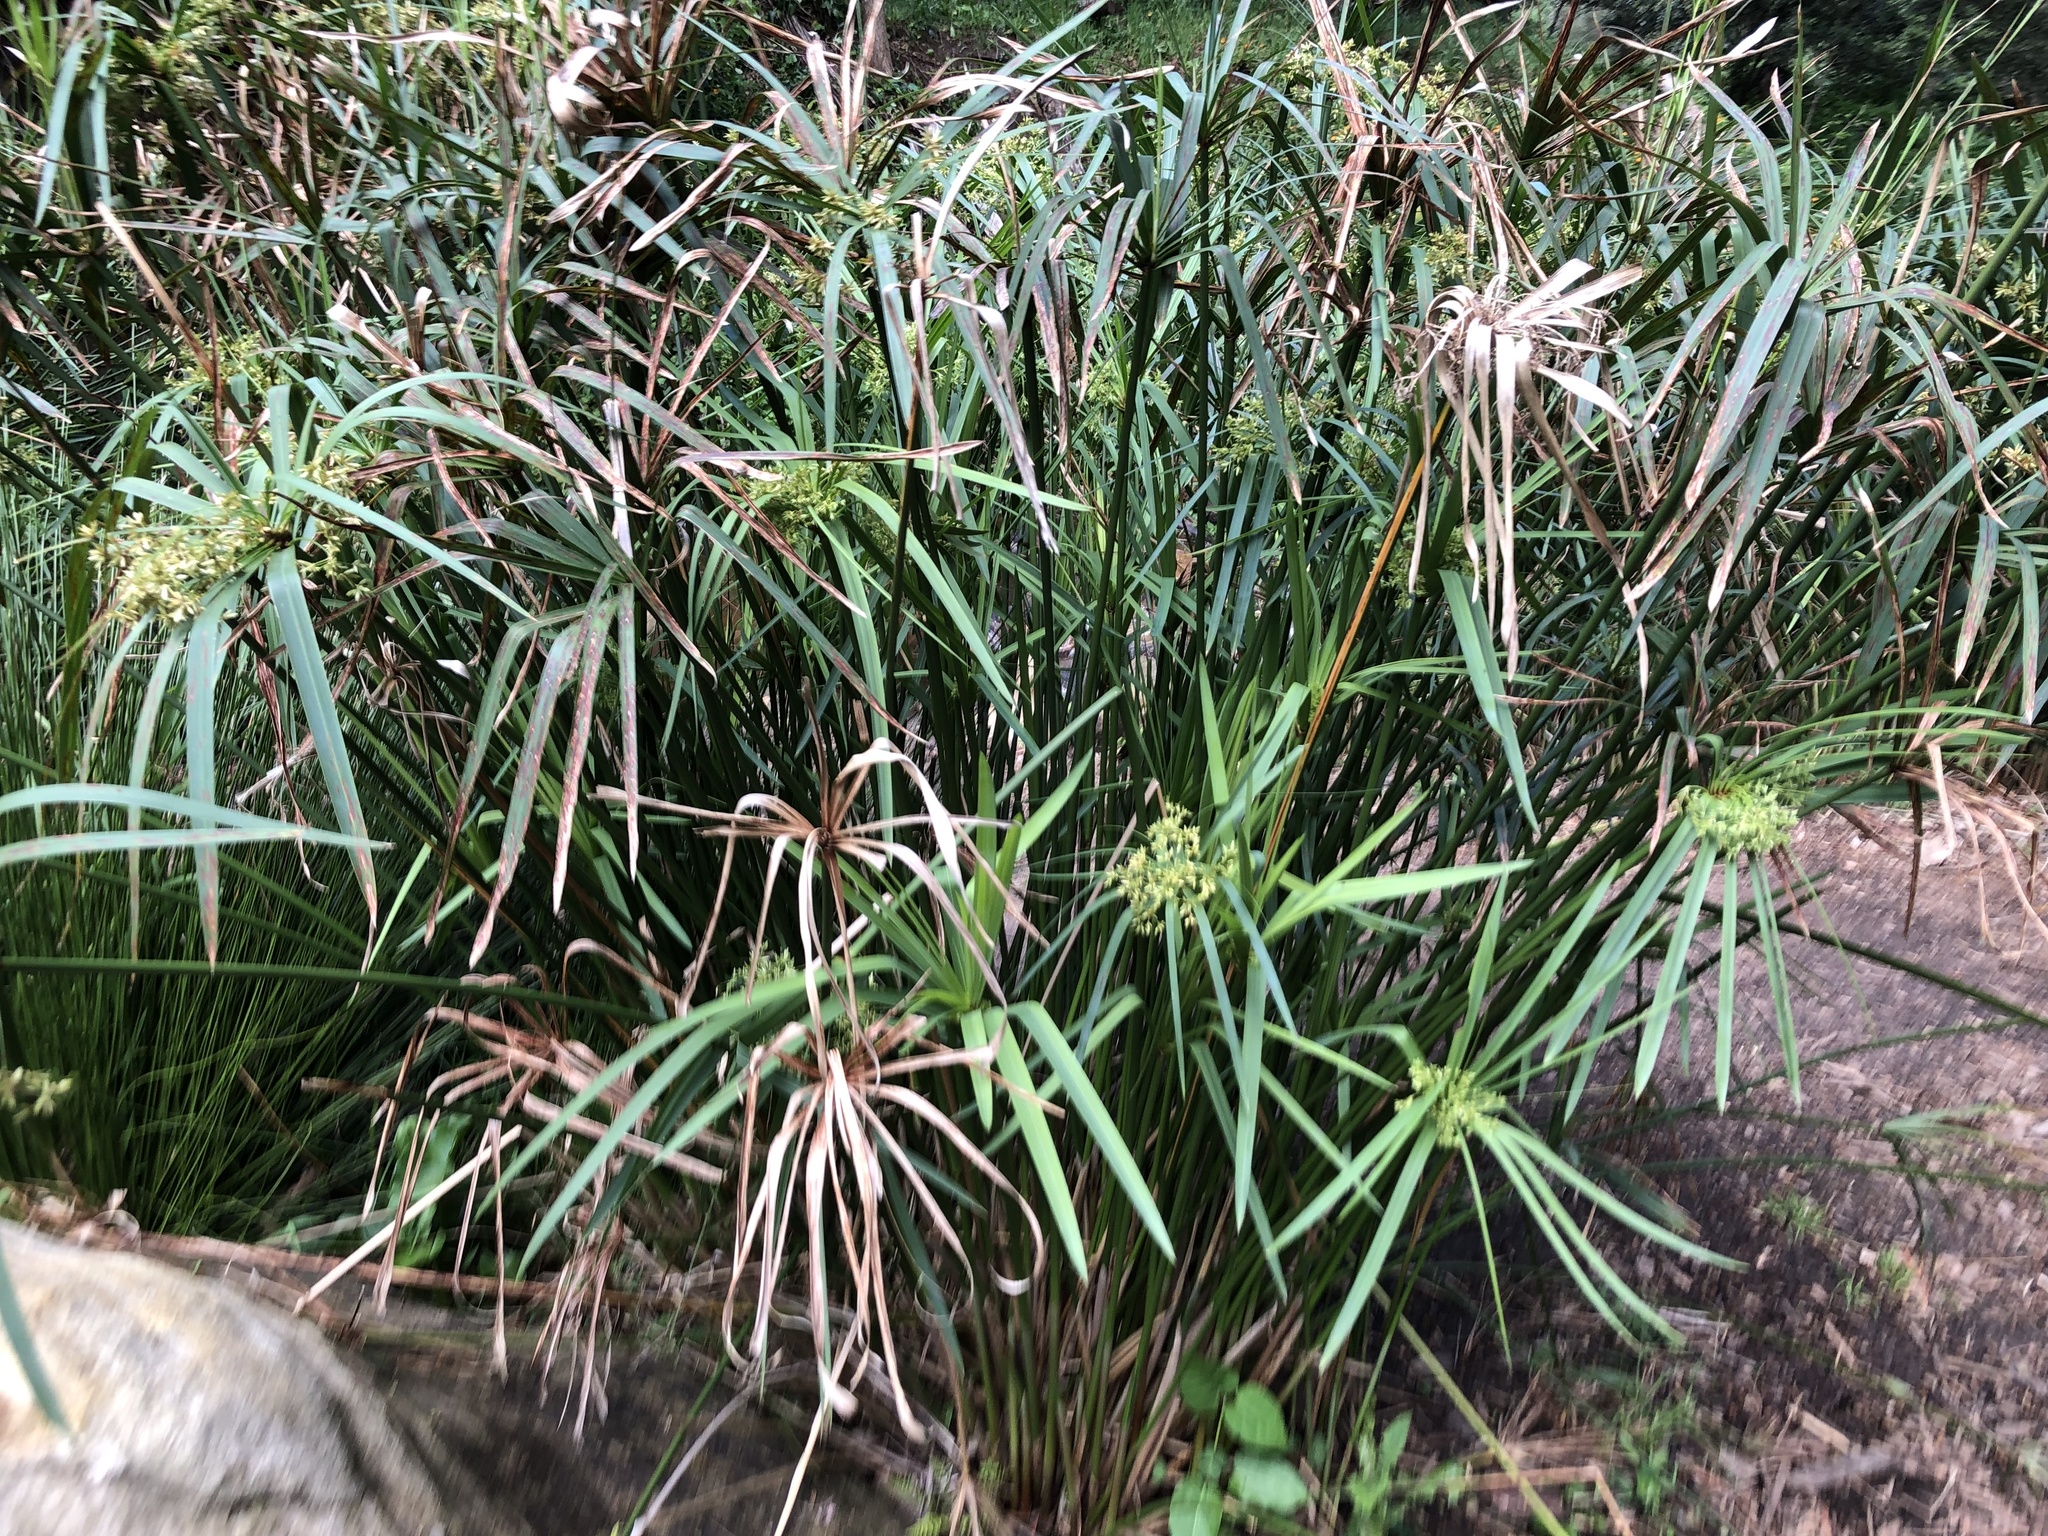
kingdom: Plantae
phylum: Tracheophyta
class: Liliopsida
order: Poales
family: Cyperaceae
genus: Cyperus
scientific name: Cyperus textilis
